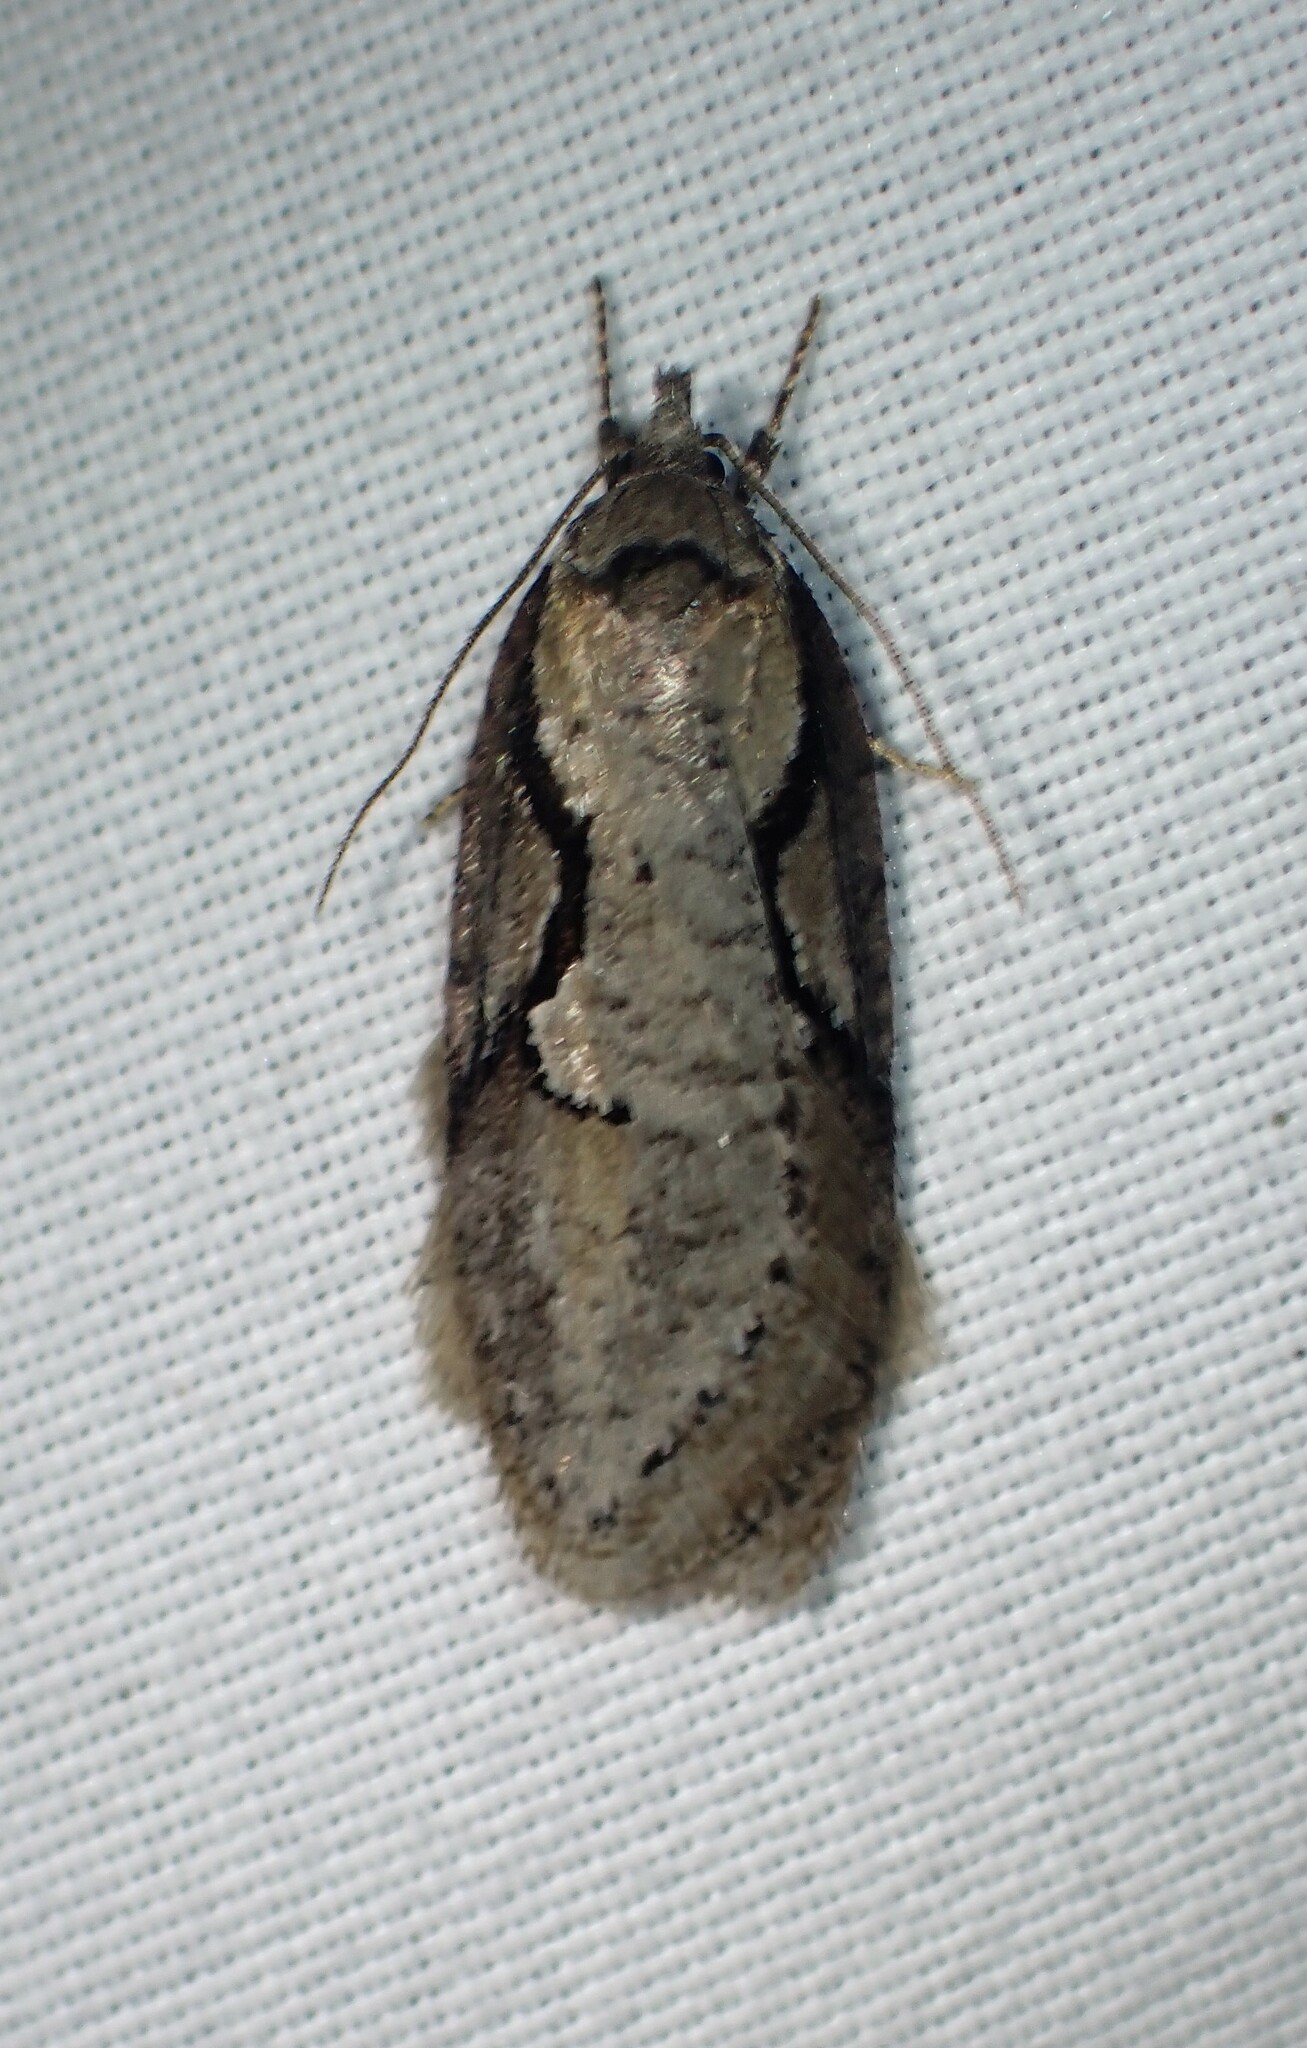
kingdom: Animalia
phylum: Arthropoda
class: Insecta
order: Lepidoptera
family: Depressariidae
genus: Semioscopis
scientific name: Semioscopis packardella
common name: Packard's concealer moth
